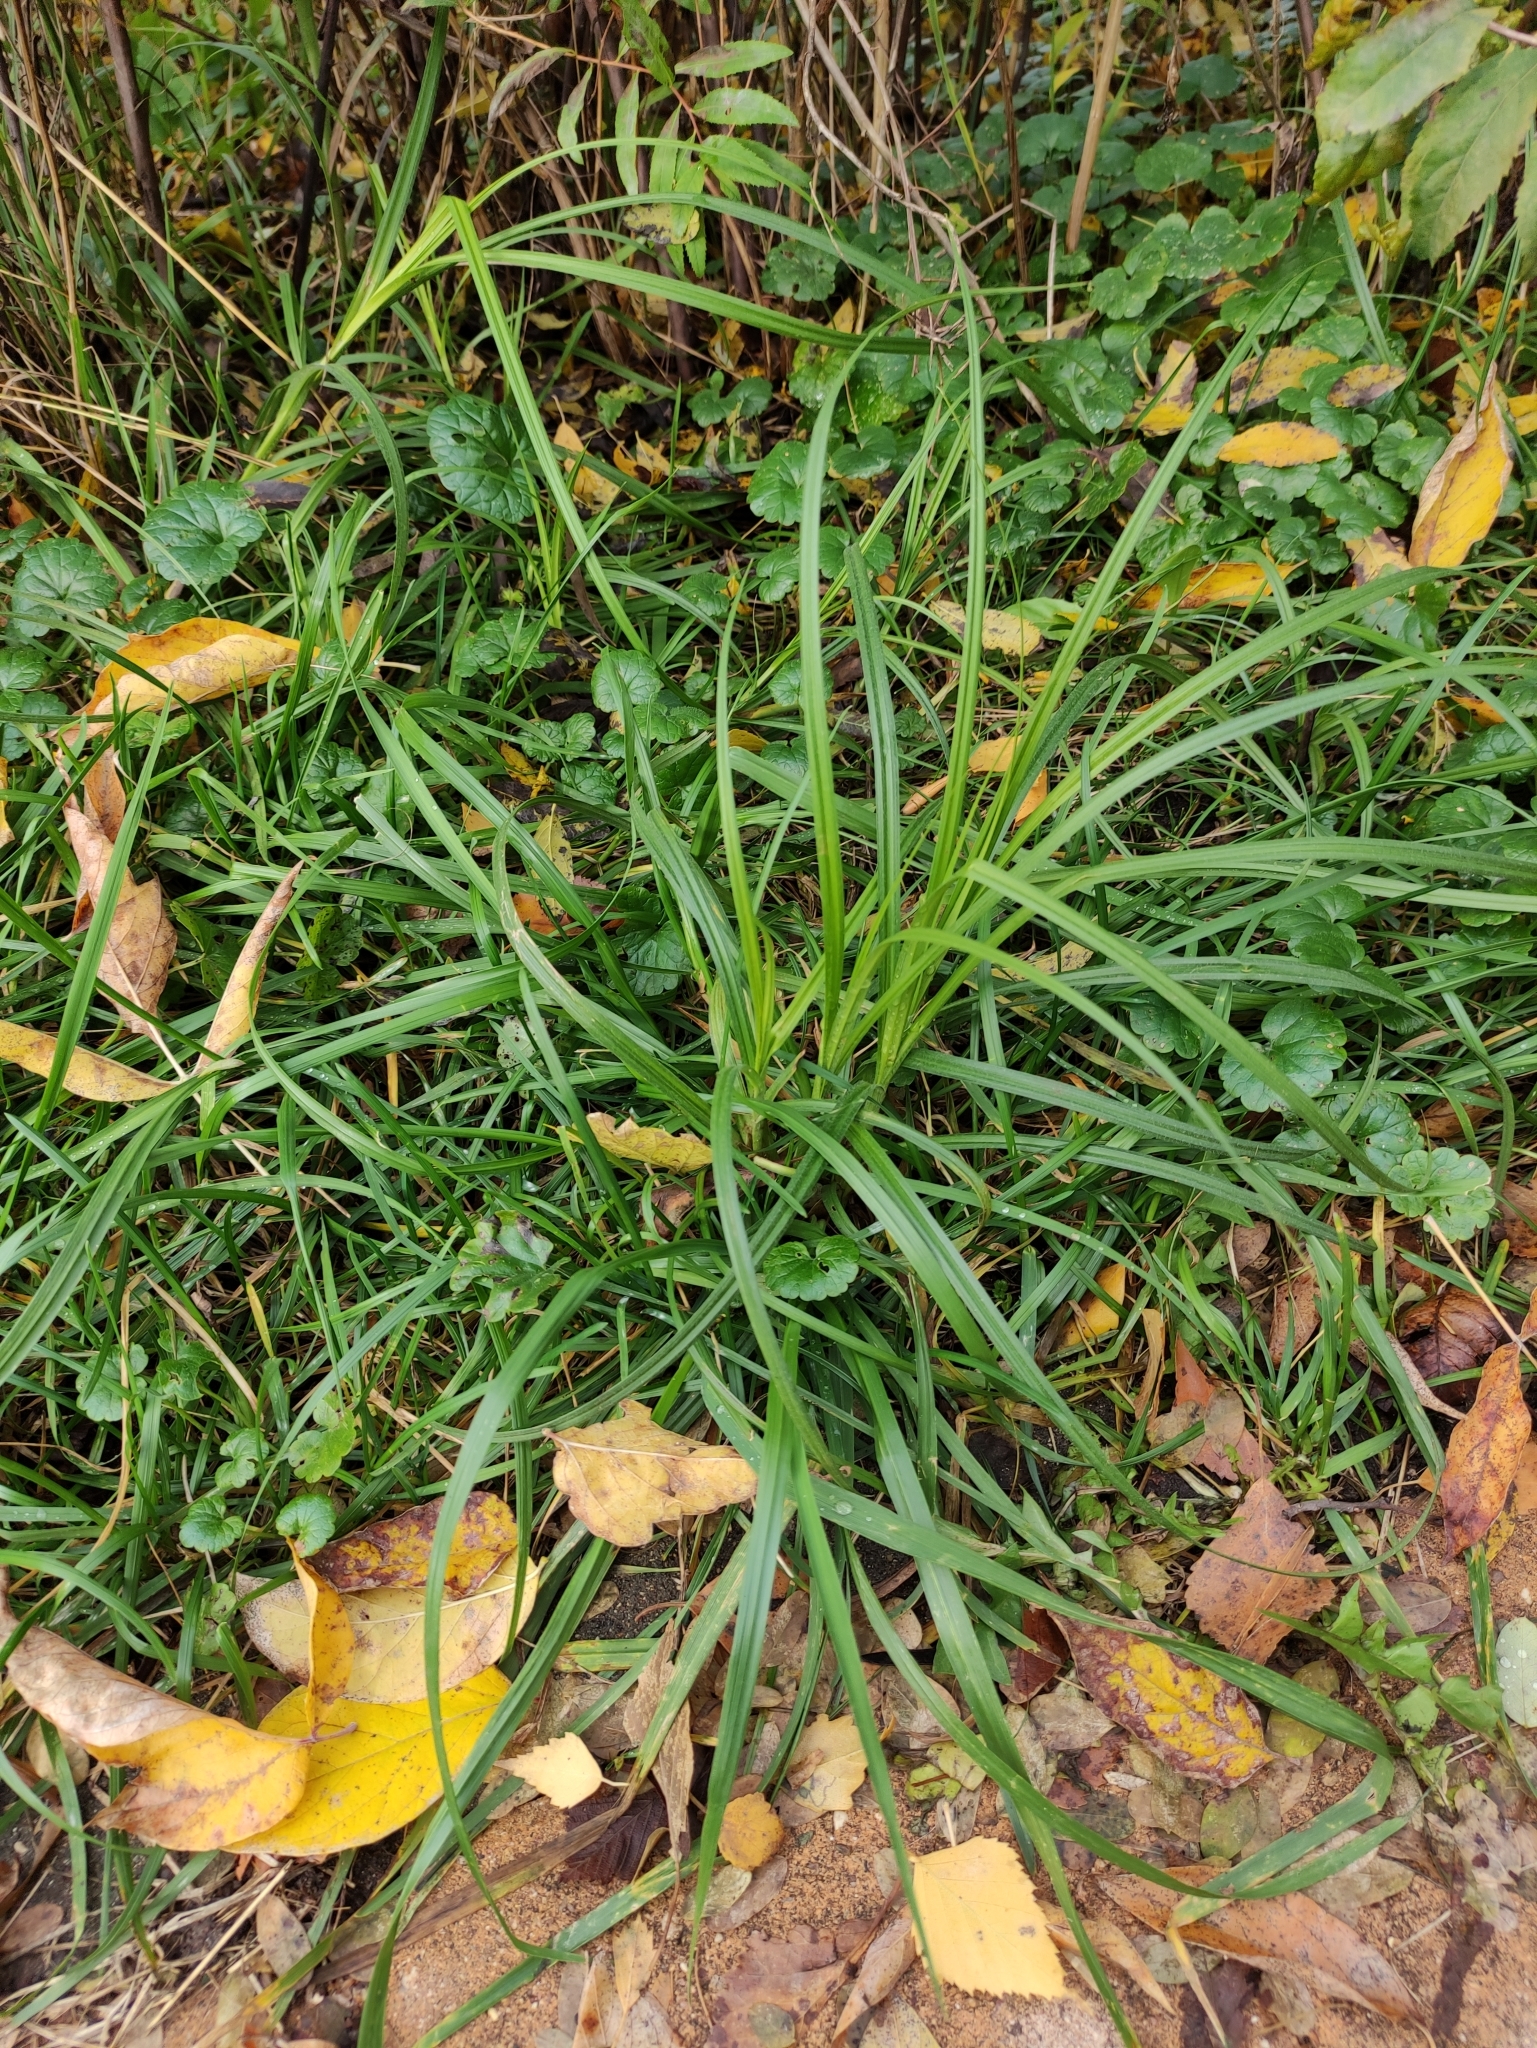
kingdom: Plantae
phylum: Tracheophyta
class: Liliopsida
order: Poales
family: Cyperaceae
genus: Carex
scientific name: Carex hirta
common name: Hairy sedge
